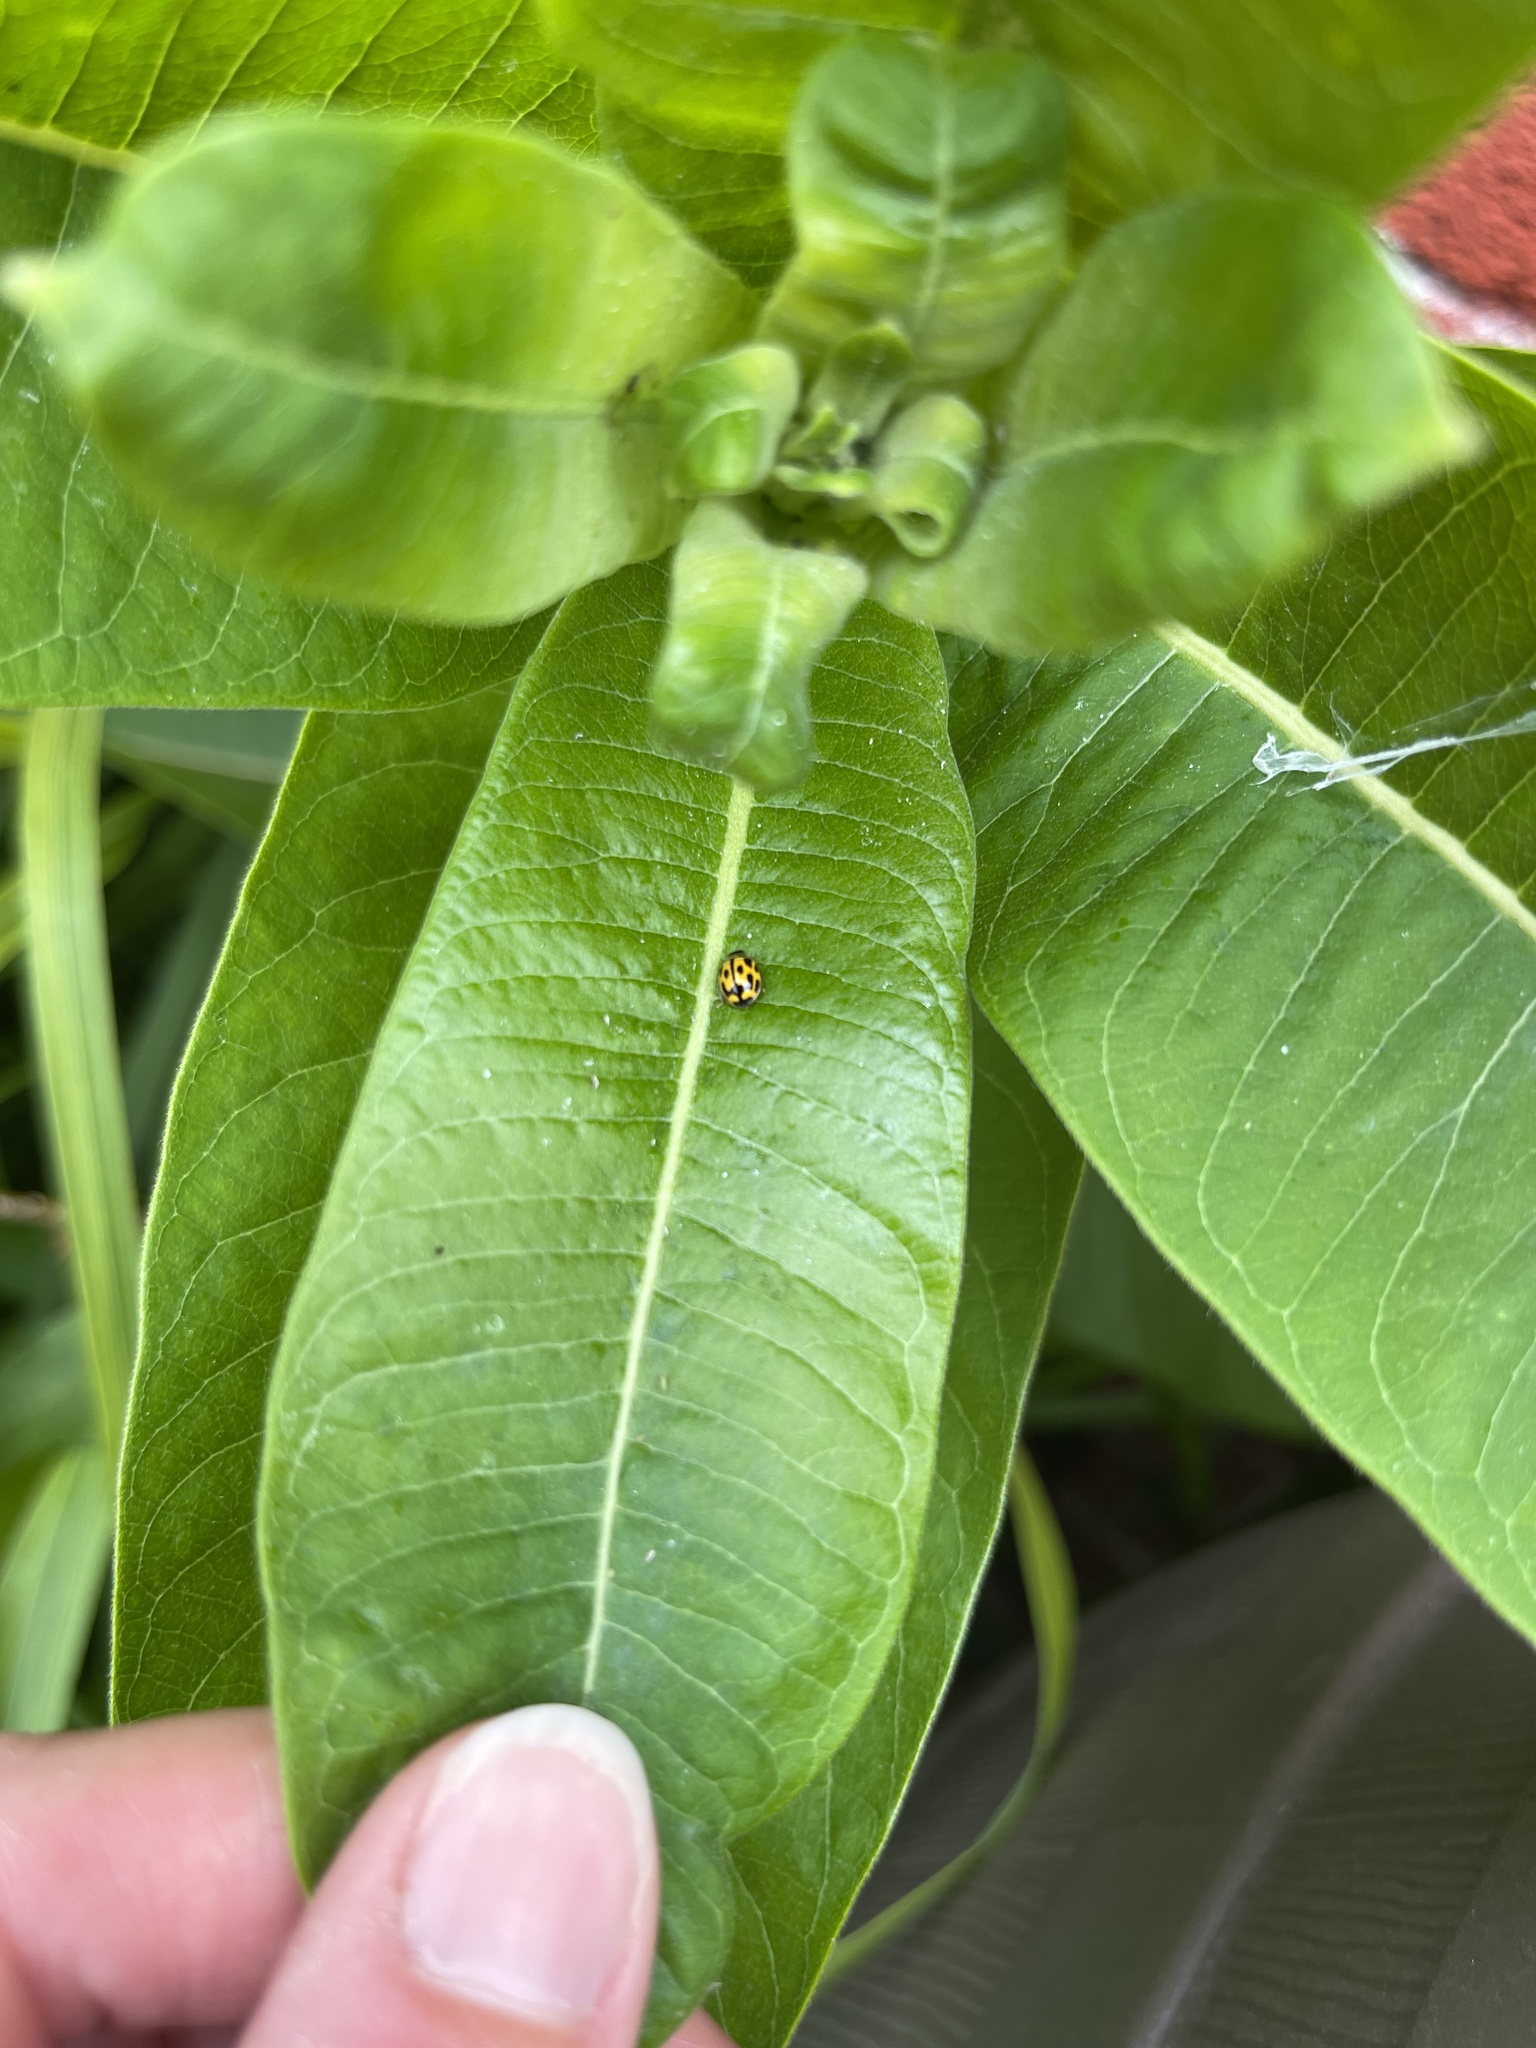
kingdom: Animalia
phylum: Arthropoda
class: Insecta
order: Coleoptera
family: Coccinellidae
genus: Propylaea
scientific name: Propylaea quatuordecimpunctata
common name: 14-spotted ladybird beetle
